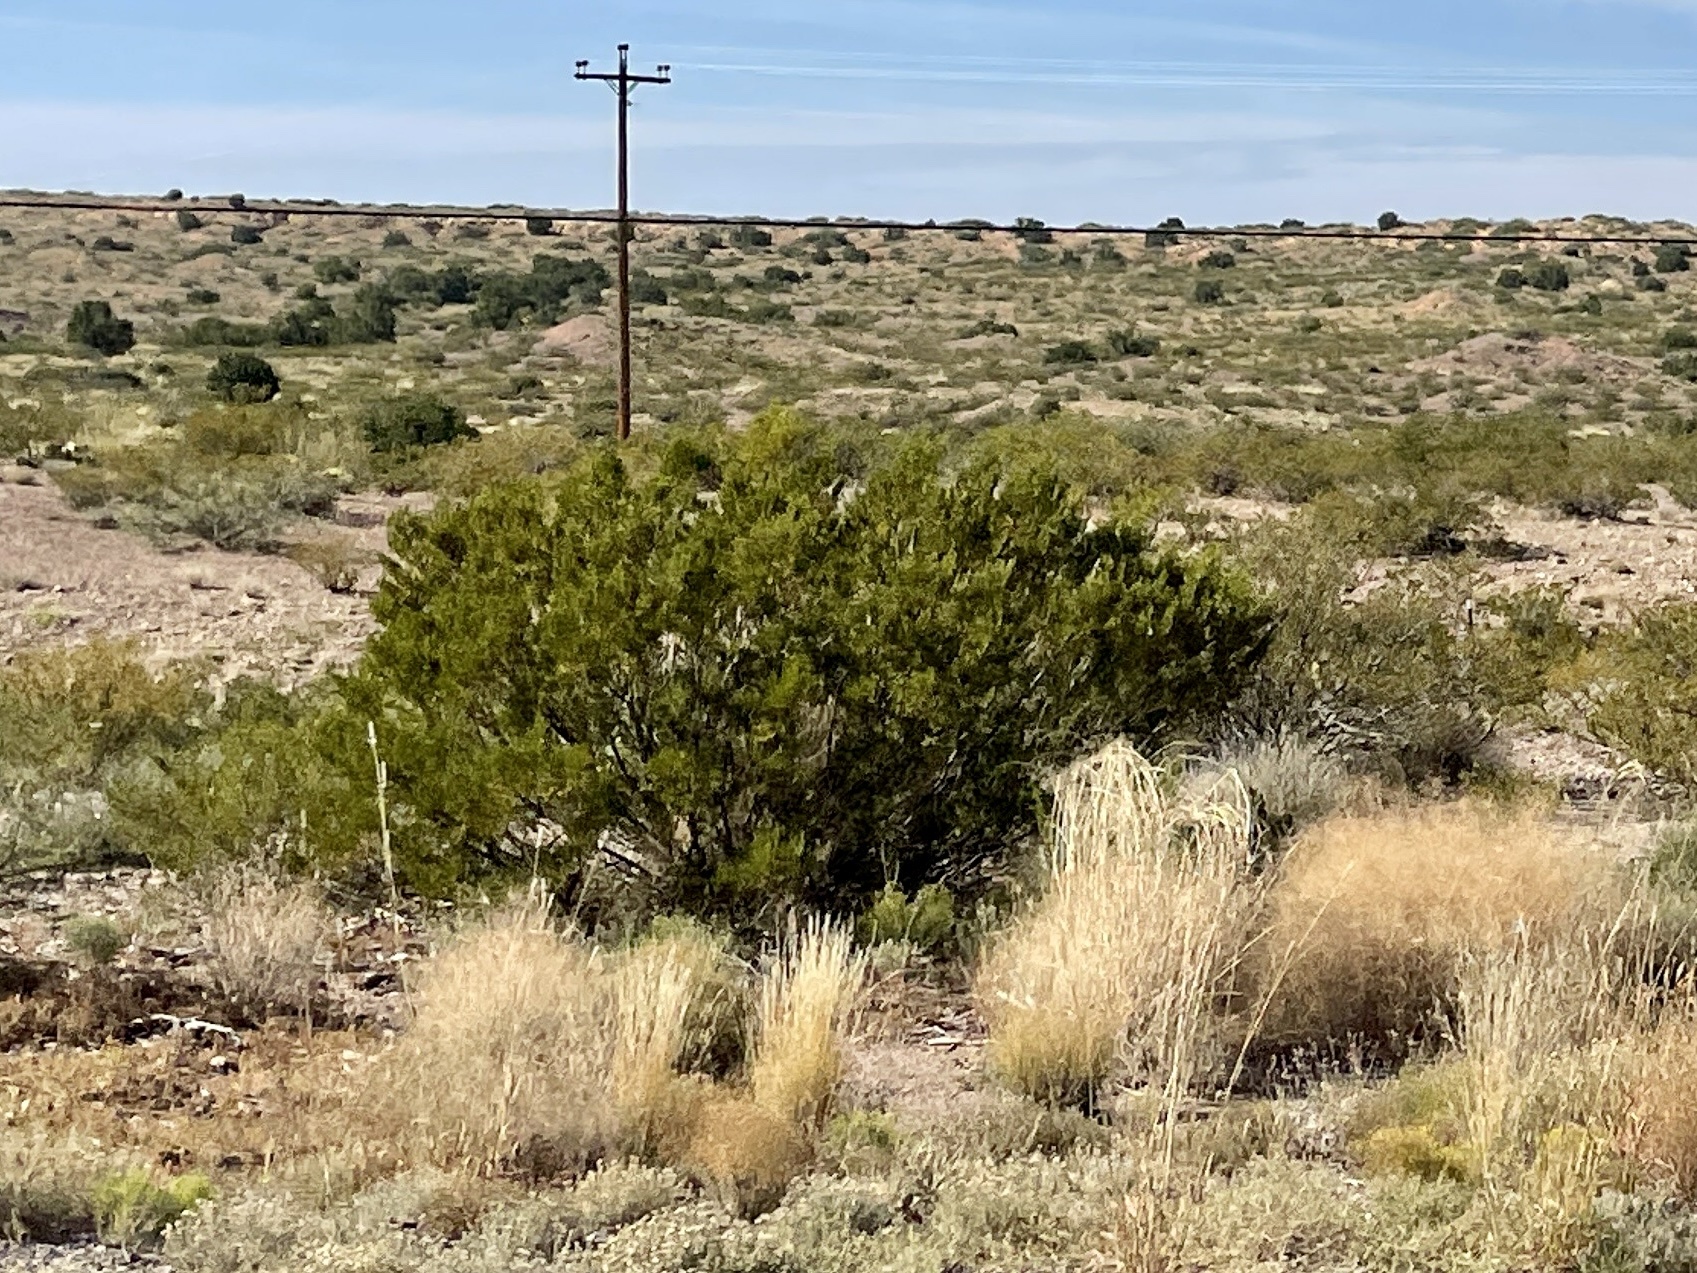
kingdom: Plantae
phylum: Tracheophyta
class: Magnoliopsida
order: Zygophyllales
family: Zygophyllaceae
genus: Larrea
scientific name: Larrea tridentata
